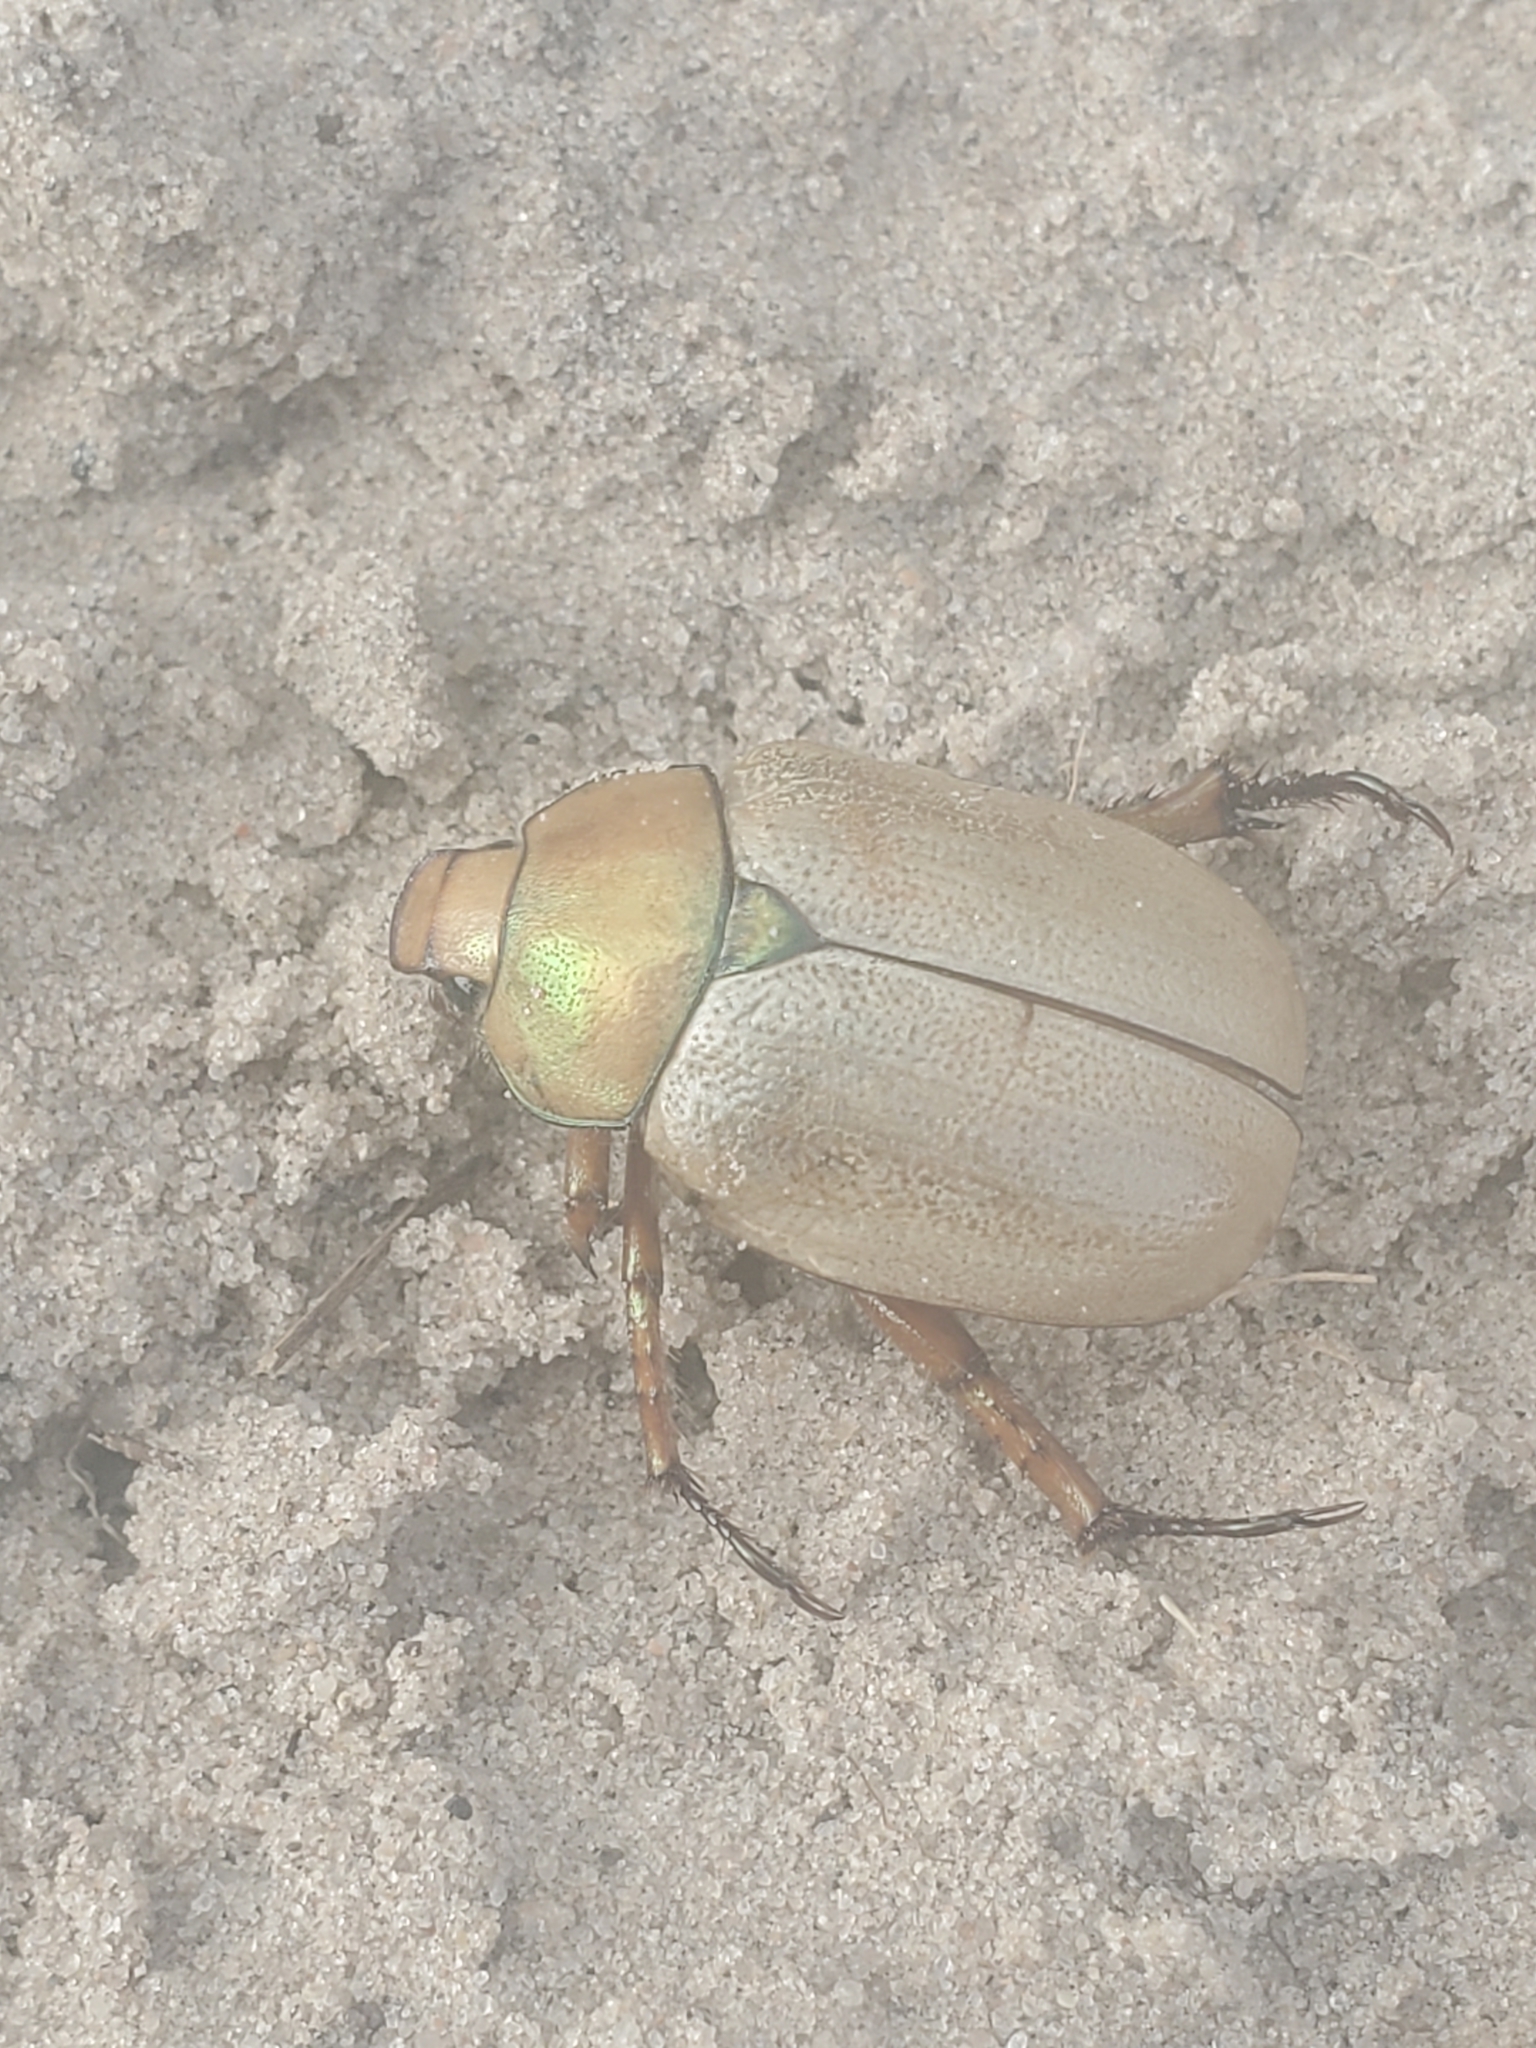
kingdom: Animalia
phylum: Arthropoda
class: Insecta
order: Coleoptera
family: Scarabaeidae
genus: Cotalpa
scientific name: Cotalpa subcribrata
